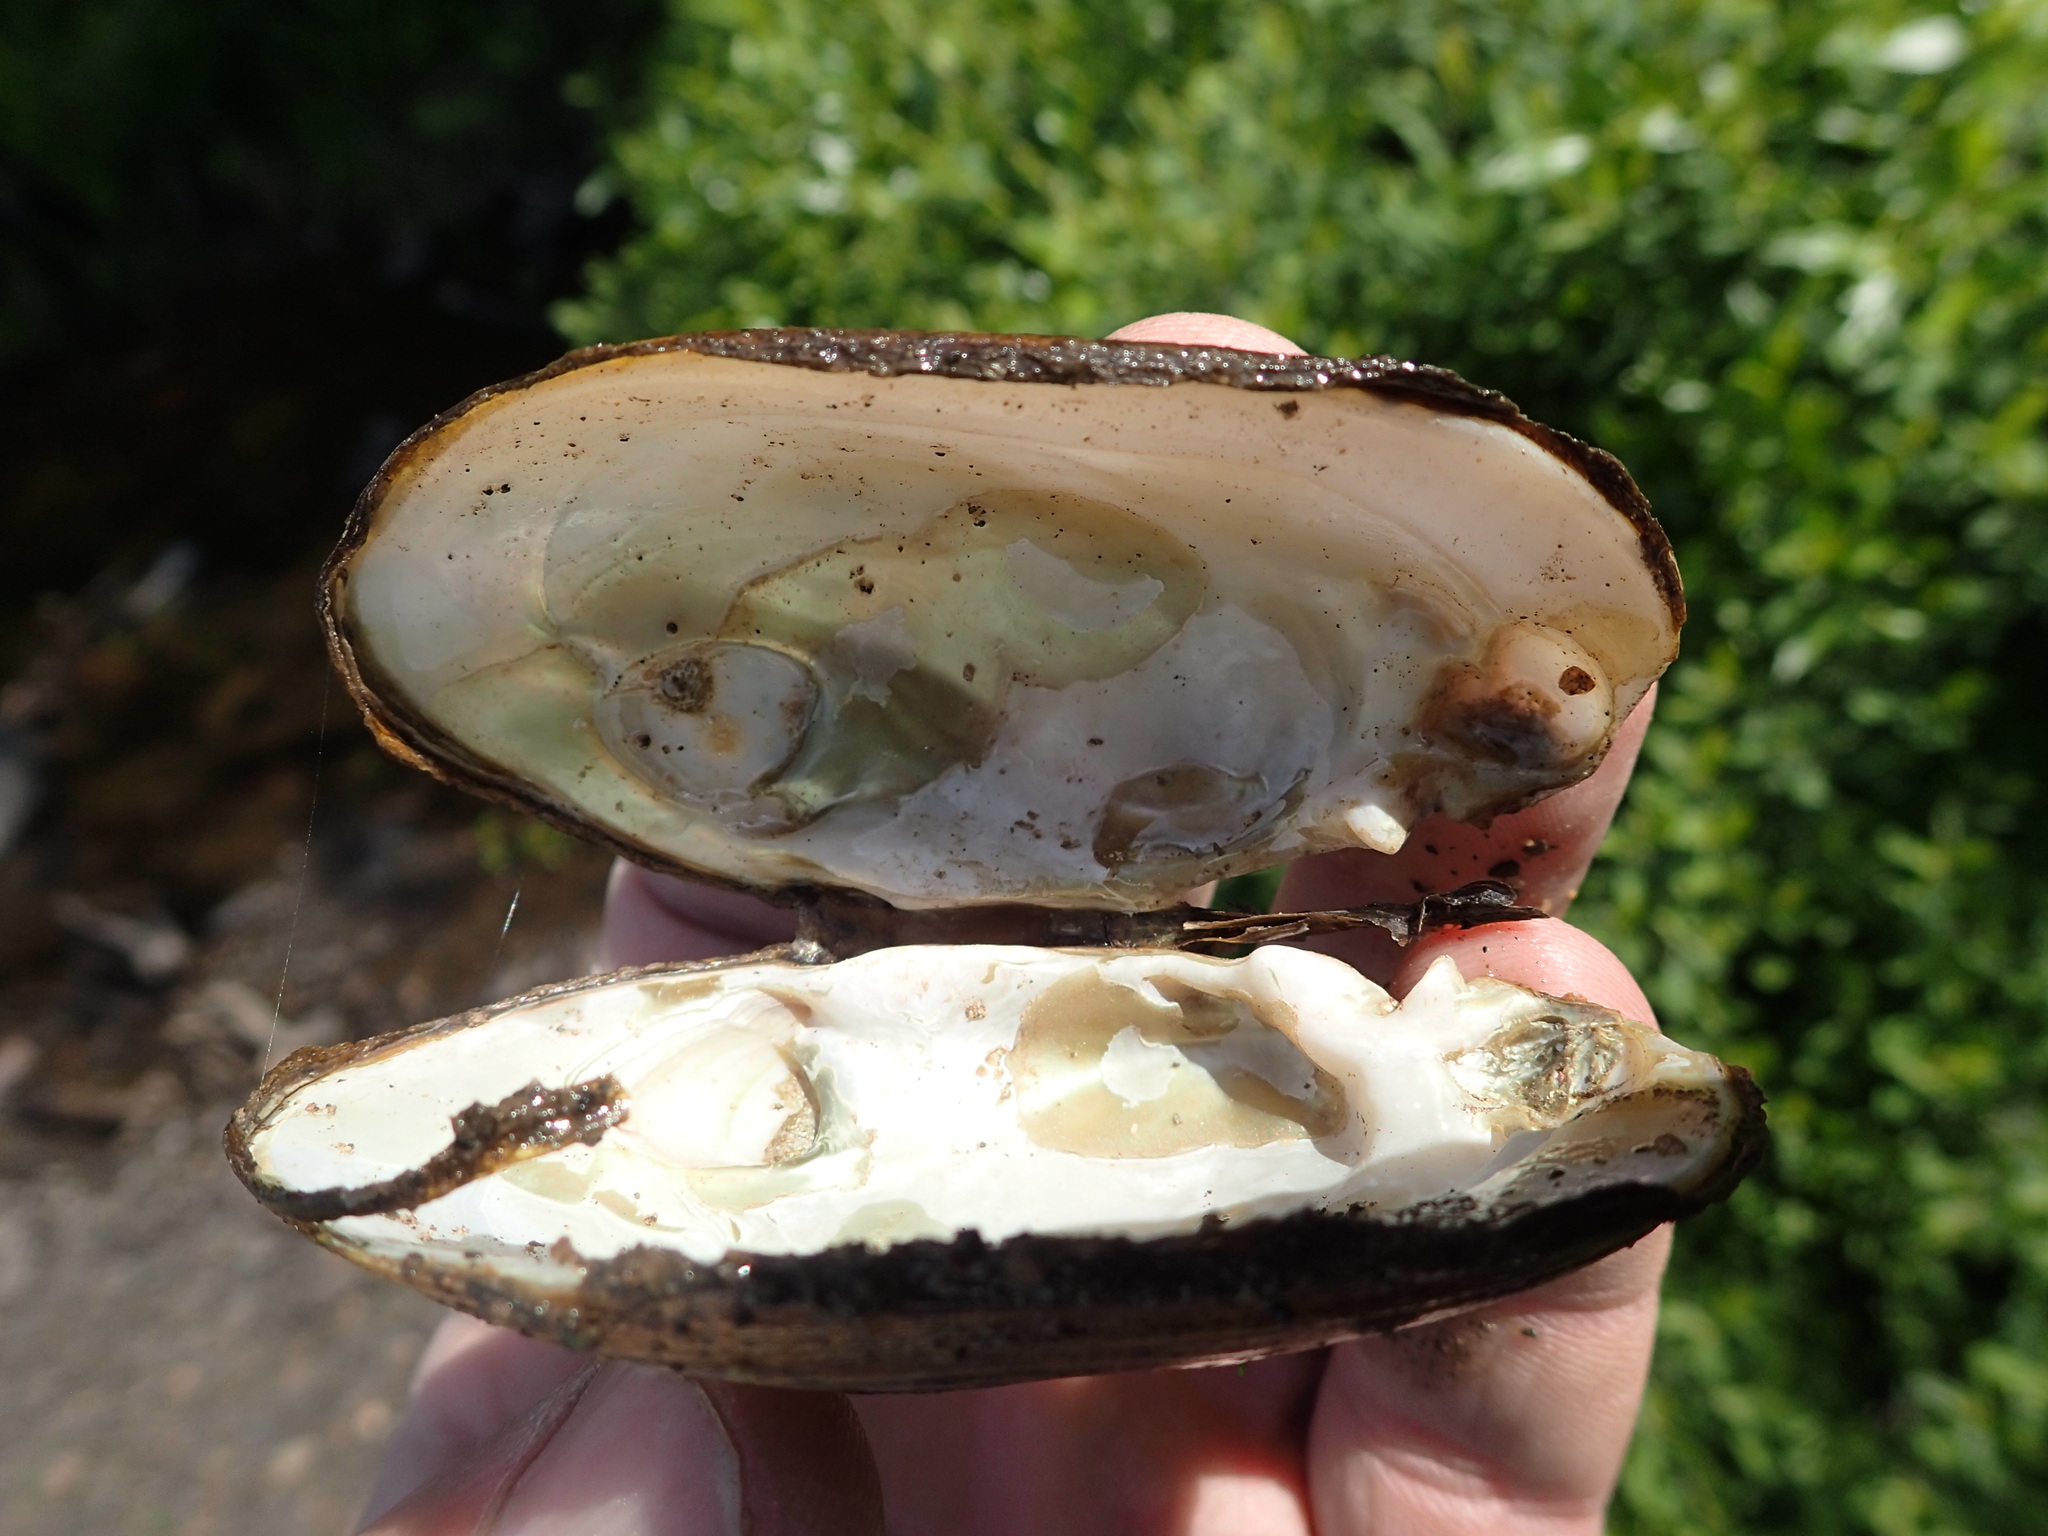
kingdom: Animalia
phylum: Mollusca
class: Bivalvia
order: Unionida
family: Unionidae
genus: Lampsilis
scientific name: Lampsilis siliquoidea
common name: Fatmucket
